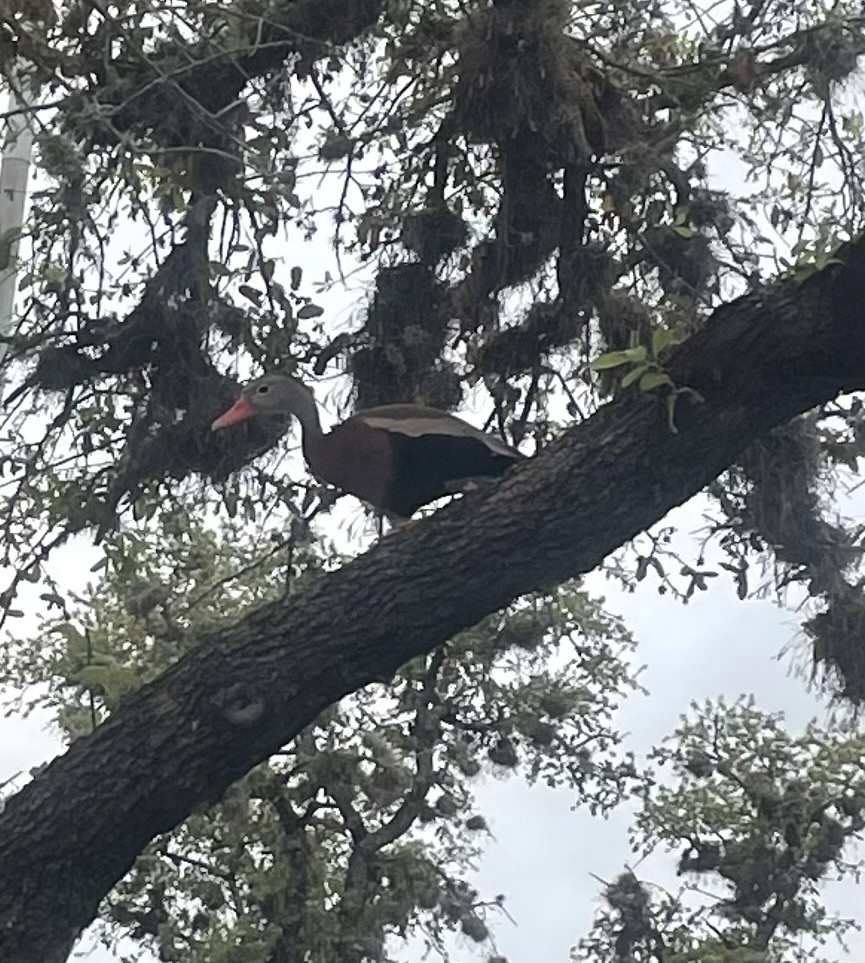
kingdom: Animalia
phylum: Chordata
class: Aves
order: Anseriformes
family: Anatidae
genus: Dendrocygna
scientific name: Dendrocygna autumnalis
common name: Black-bellied whistling duck
